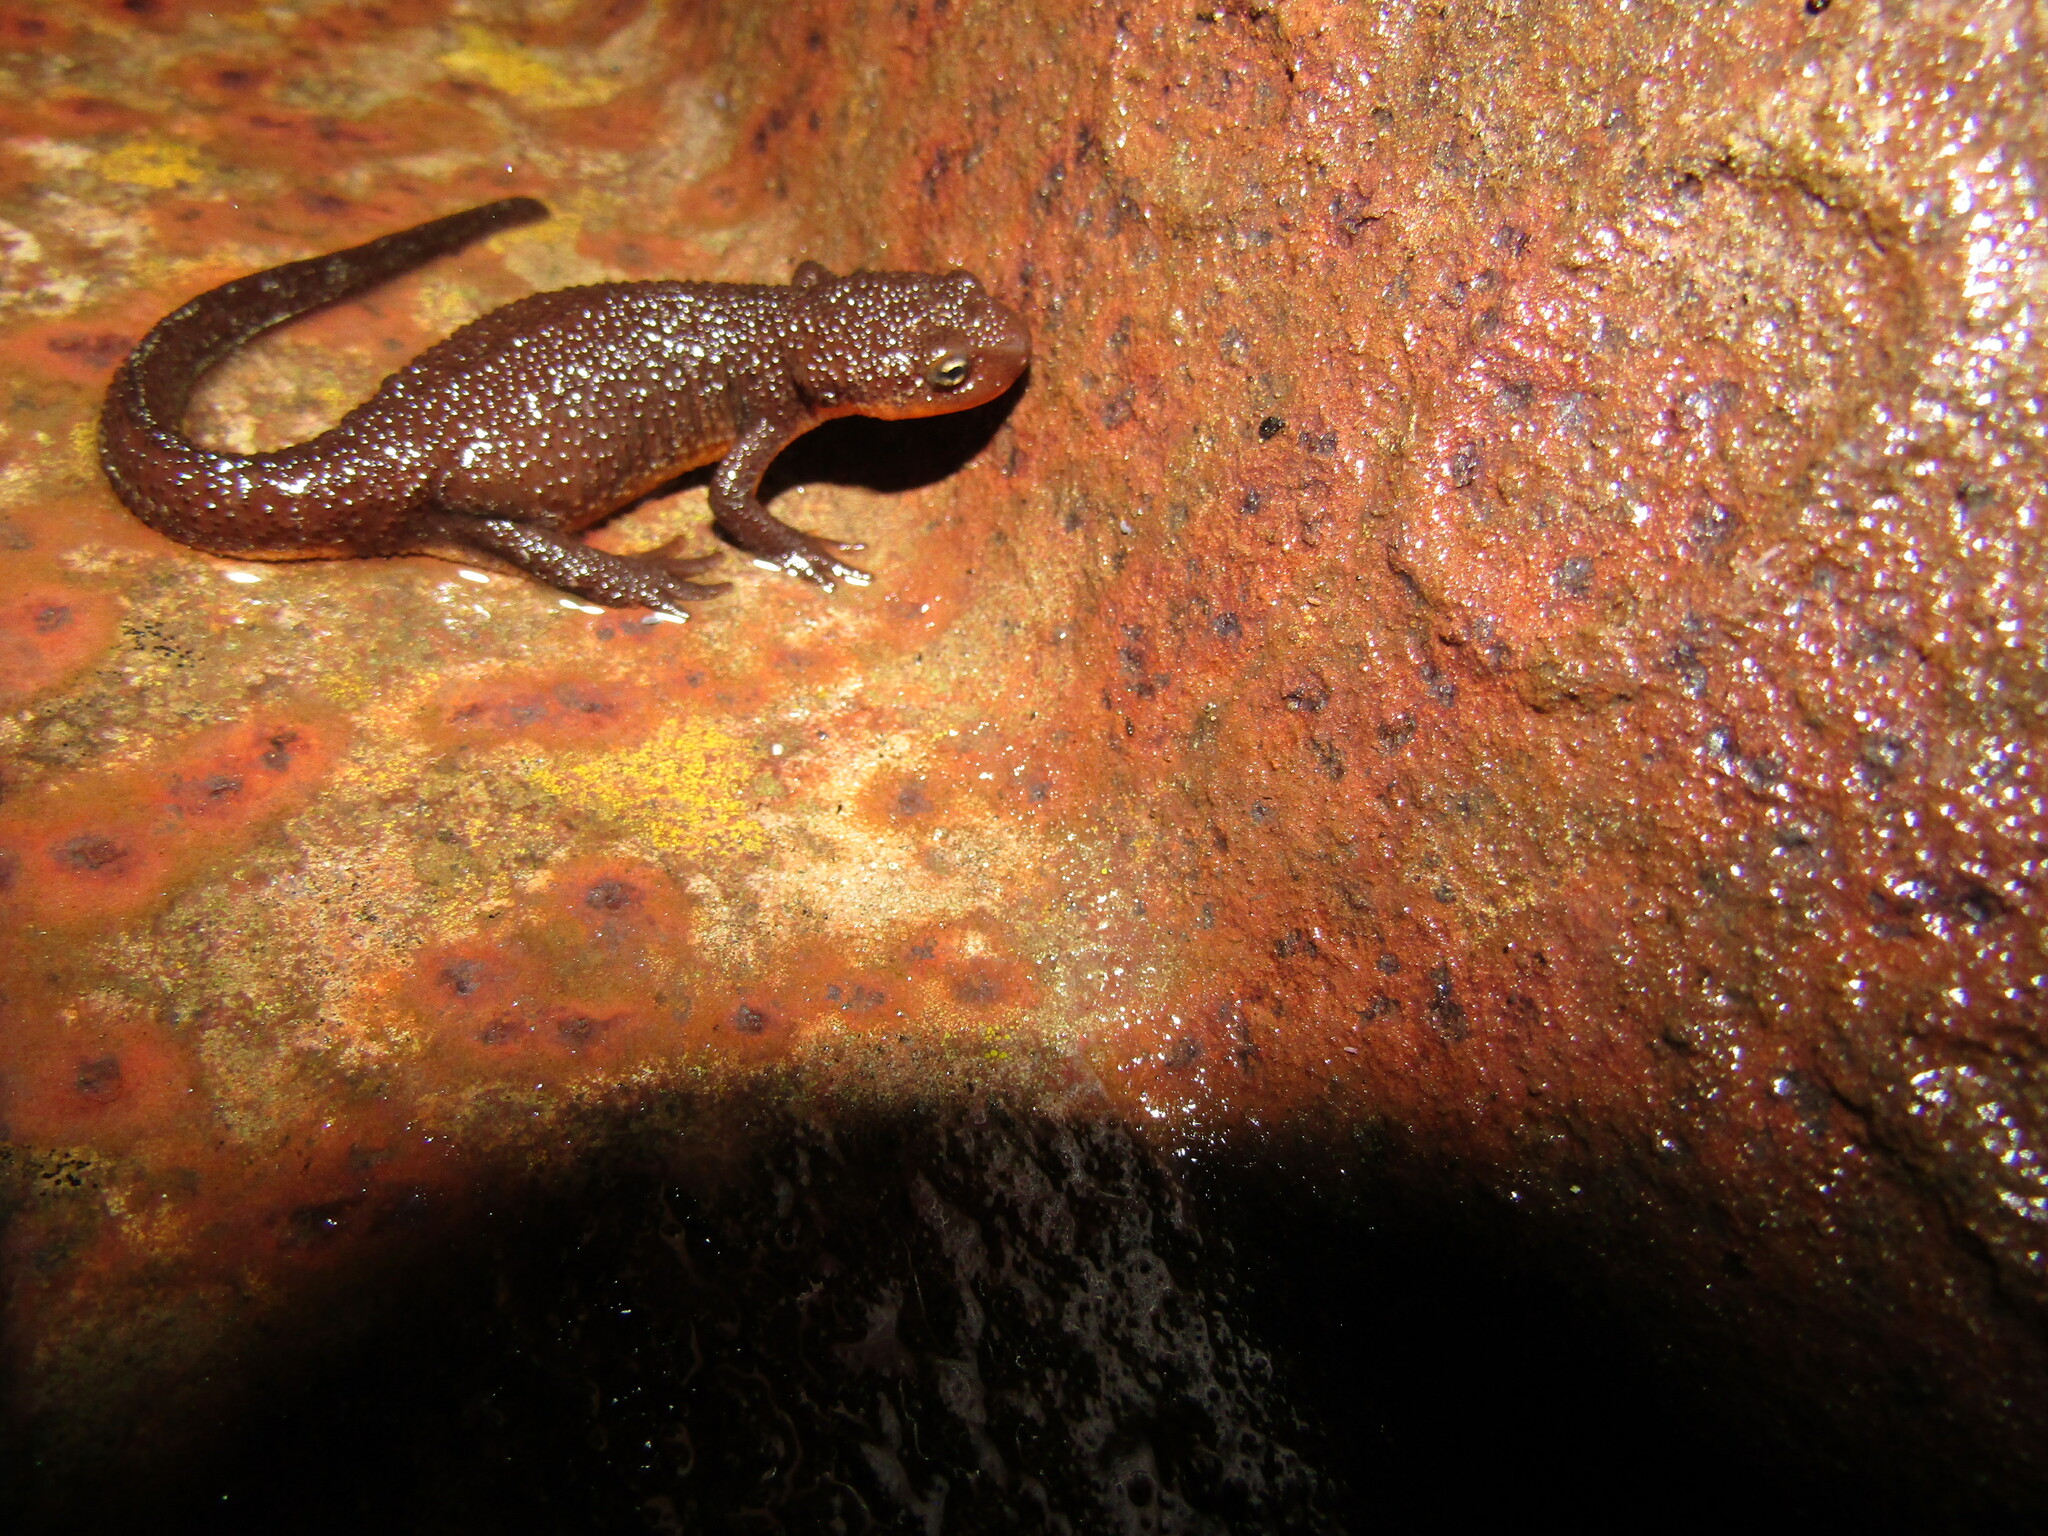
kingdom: Animalia
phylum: Chordata
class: Amphibia
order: Caudata
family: Salamandridae
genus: Taricha
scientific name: Taricha torosa
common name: California newt
